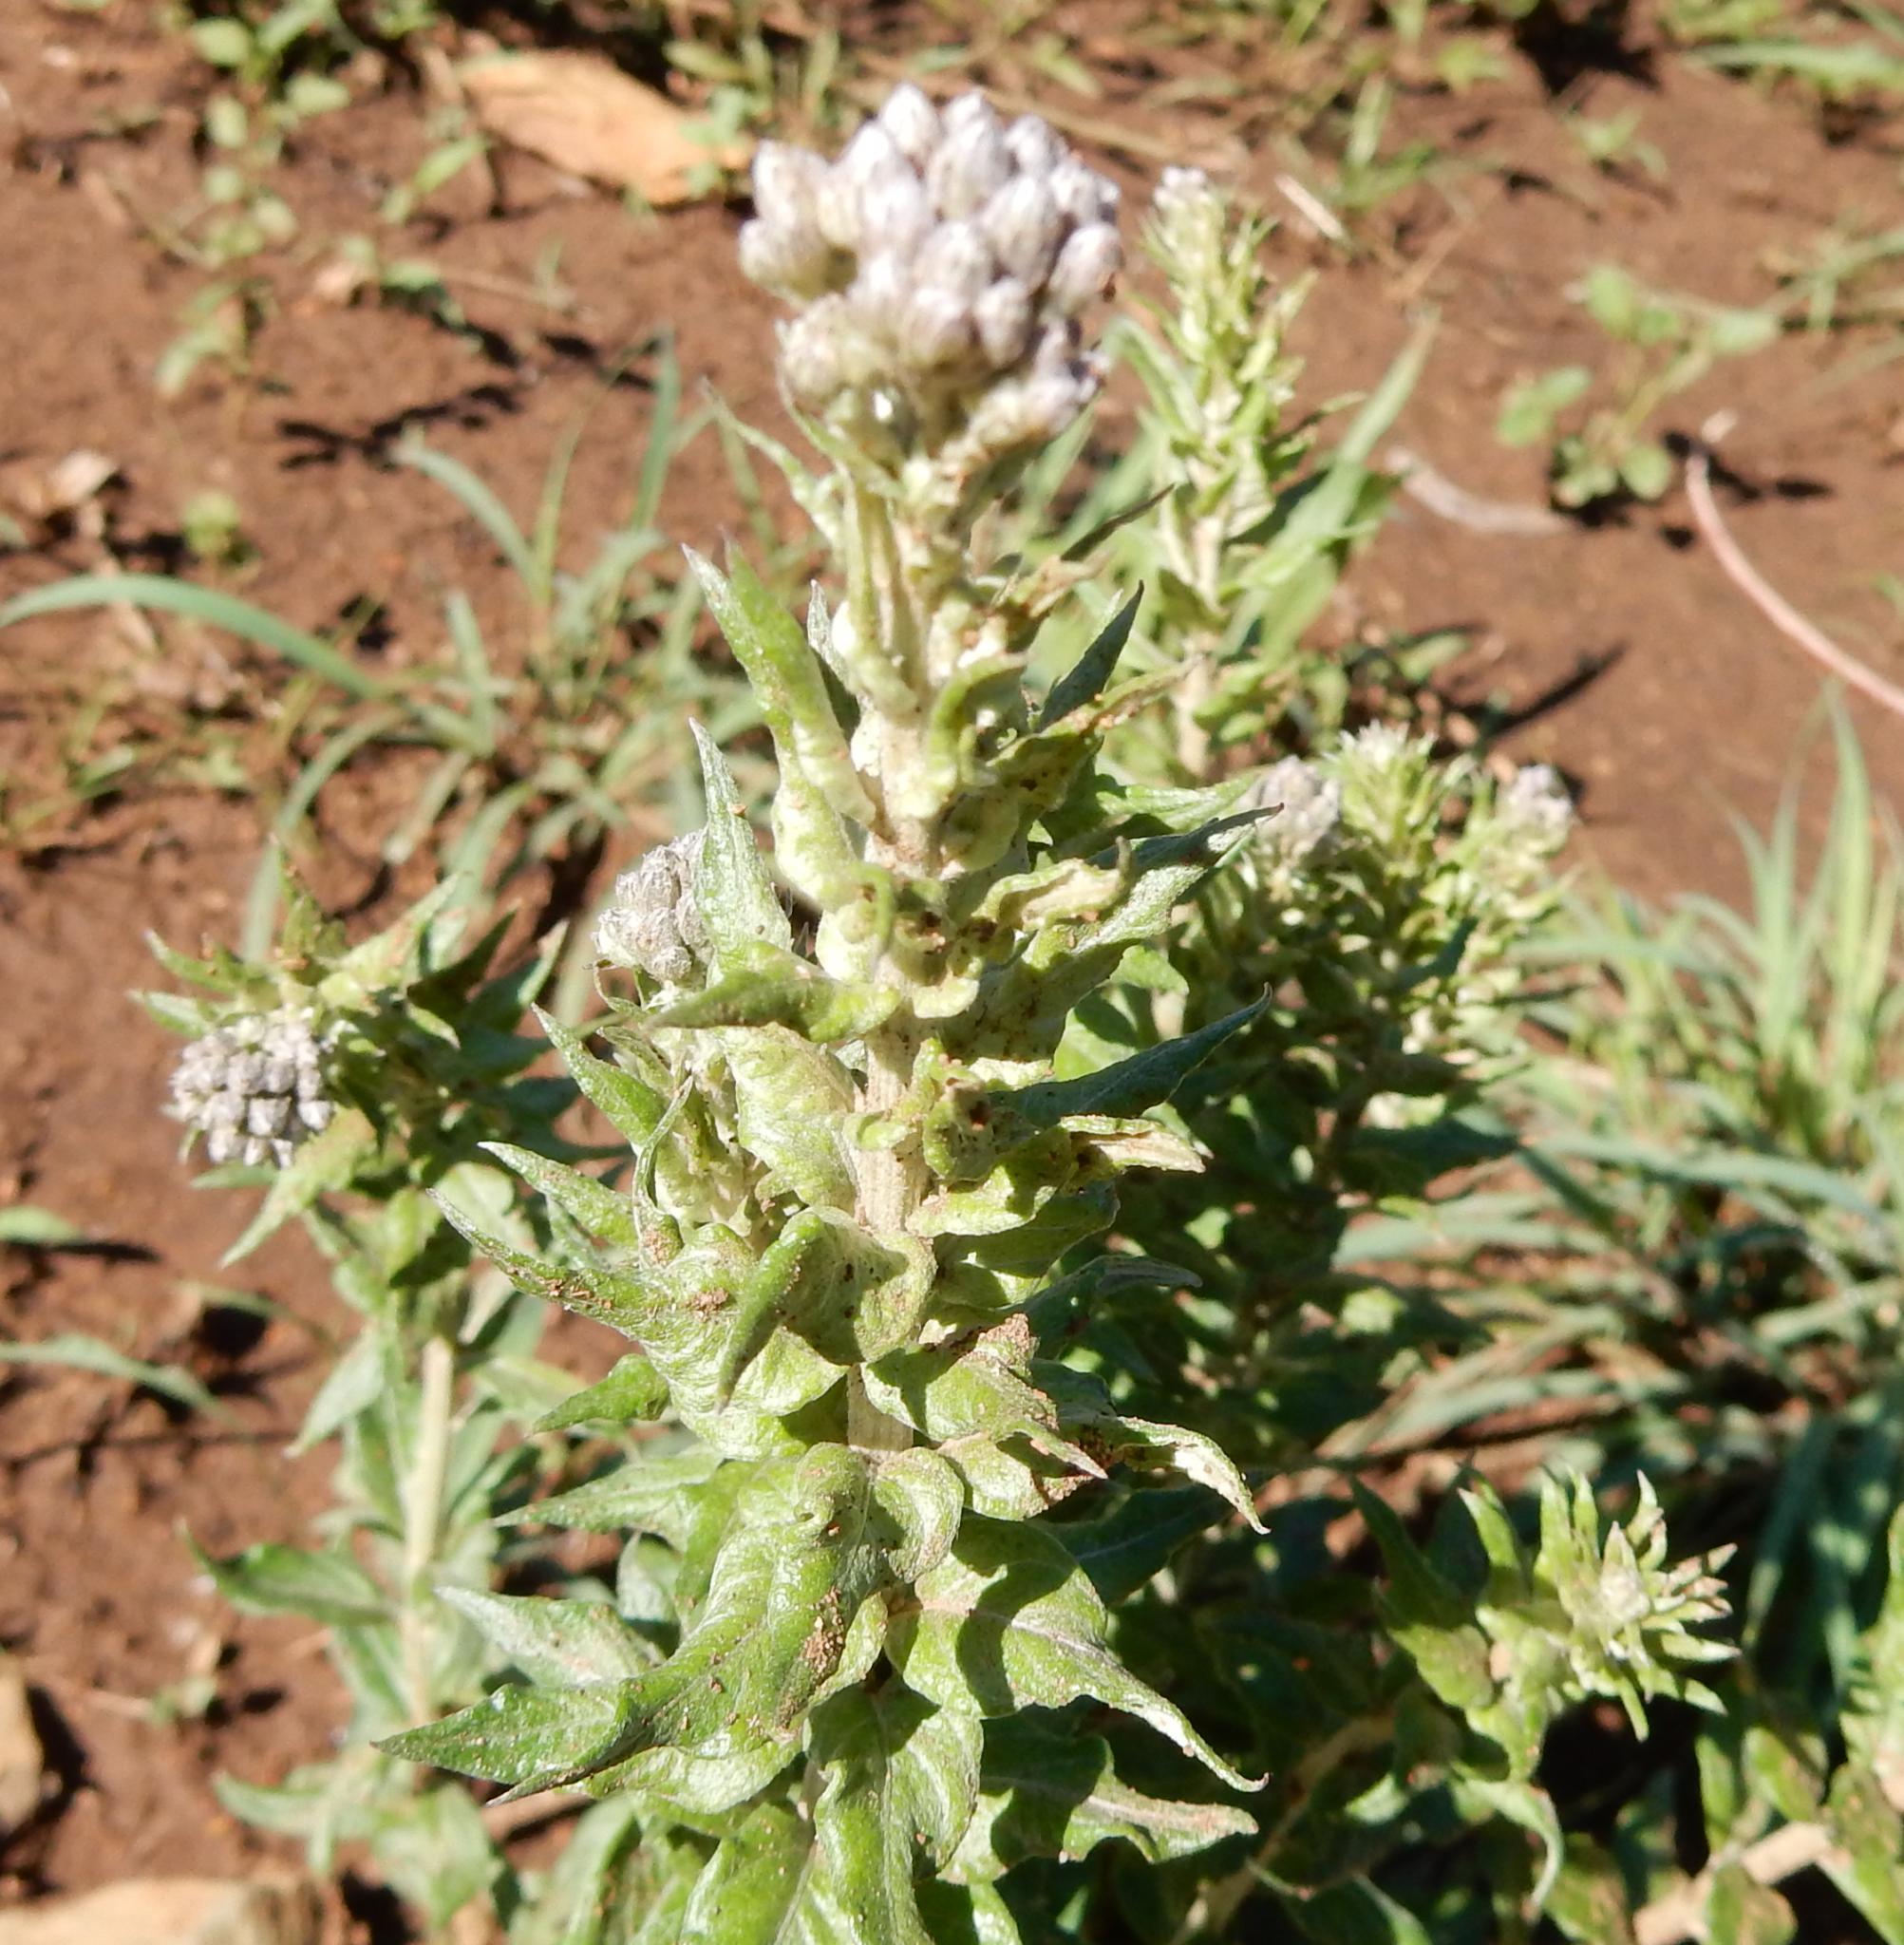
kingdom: Plantae
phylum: Tracheophyta
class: Magnoliopsida
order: Asterales
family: Asteraceae
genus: Hilliardiella
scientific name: Hilliardiella oligocephala
